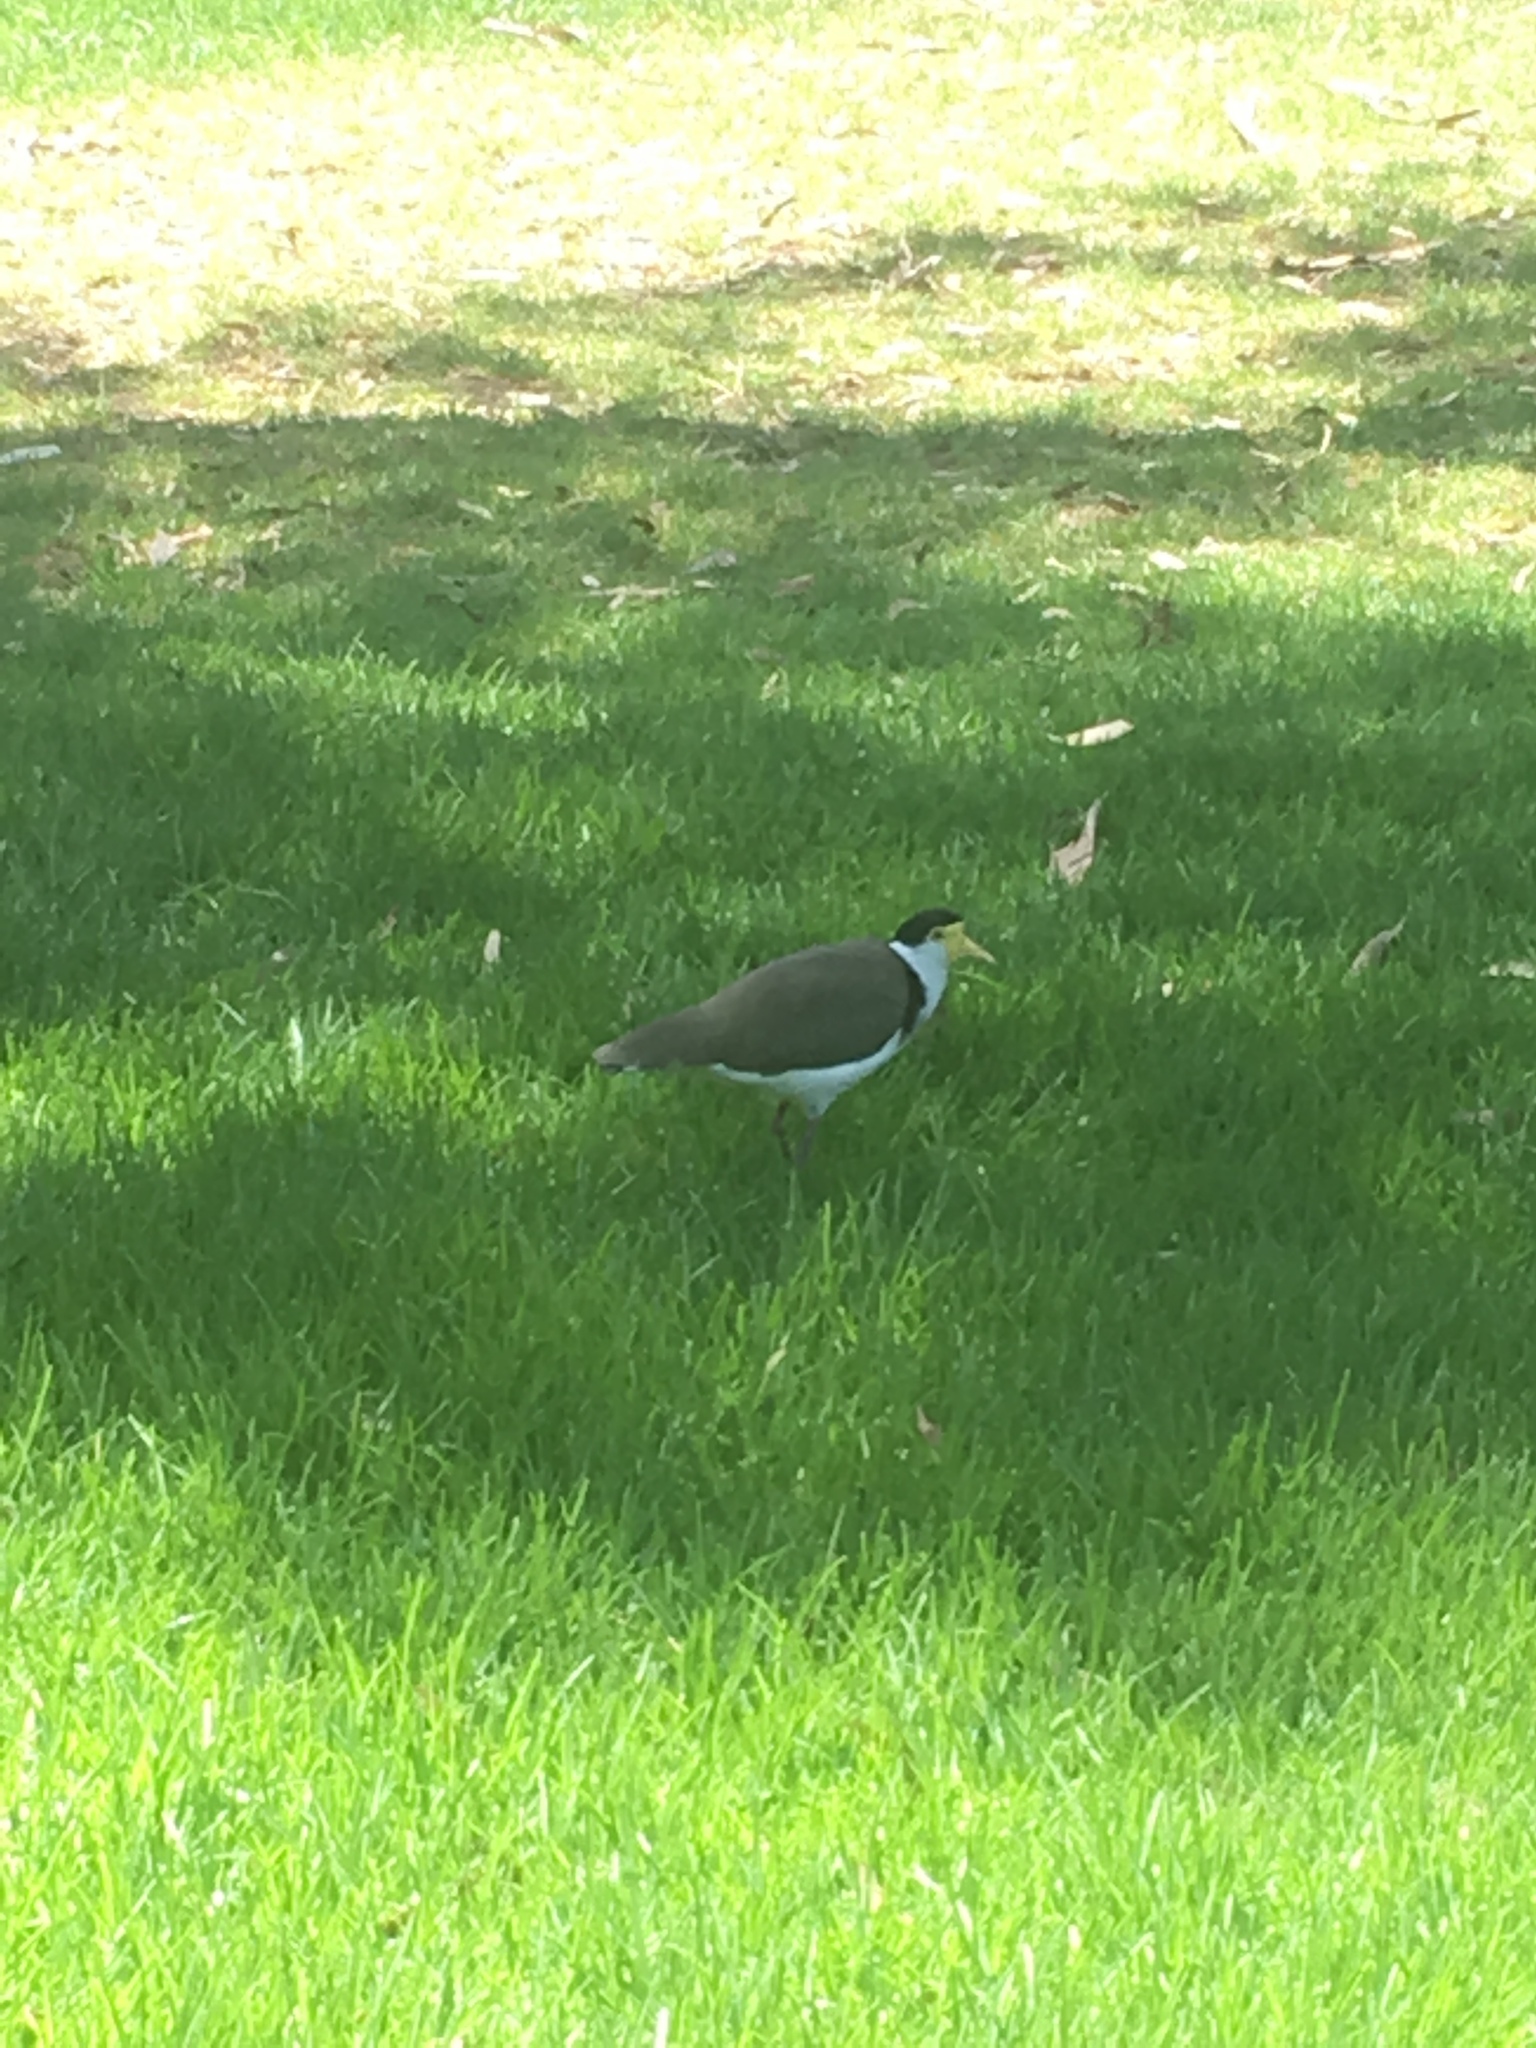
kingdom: Animalia
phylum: Chordata
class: Aves
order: Charadriiformes
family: Charadriidae
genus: Vanellus
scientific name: Vanellus miles
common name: Masked lapwing
